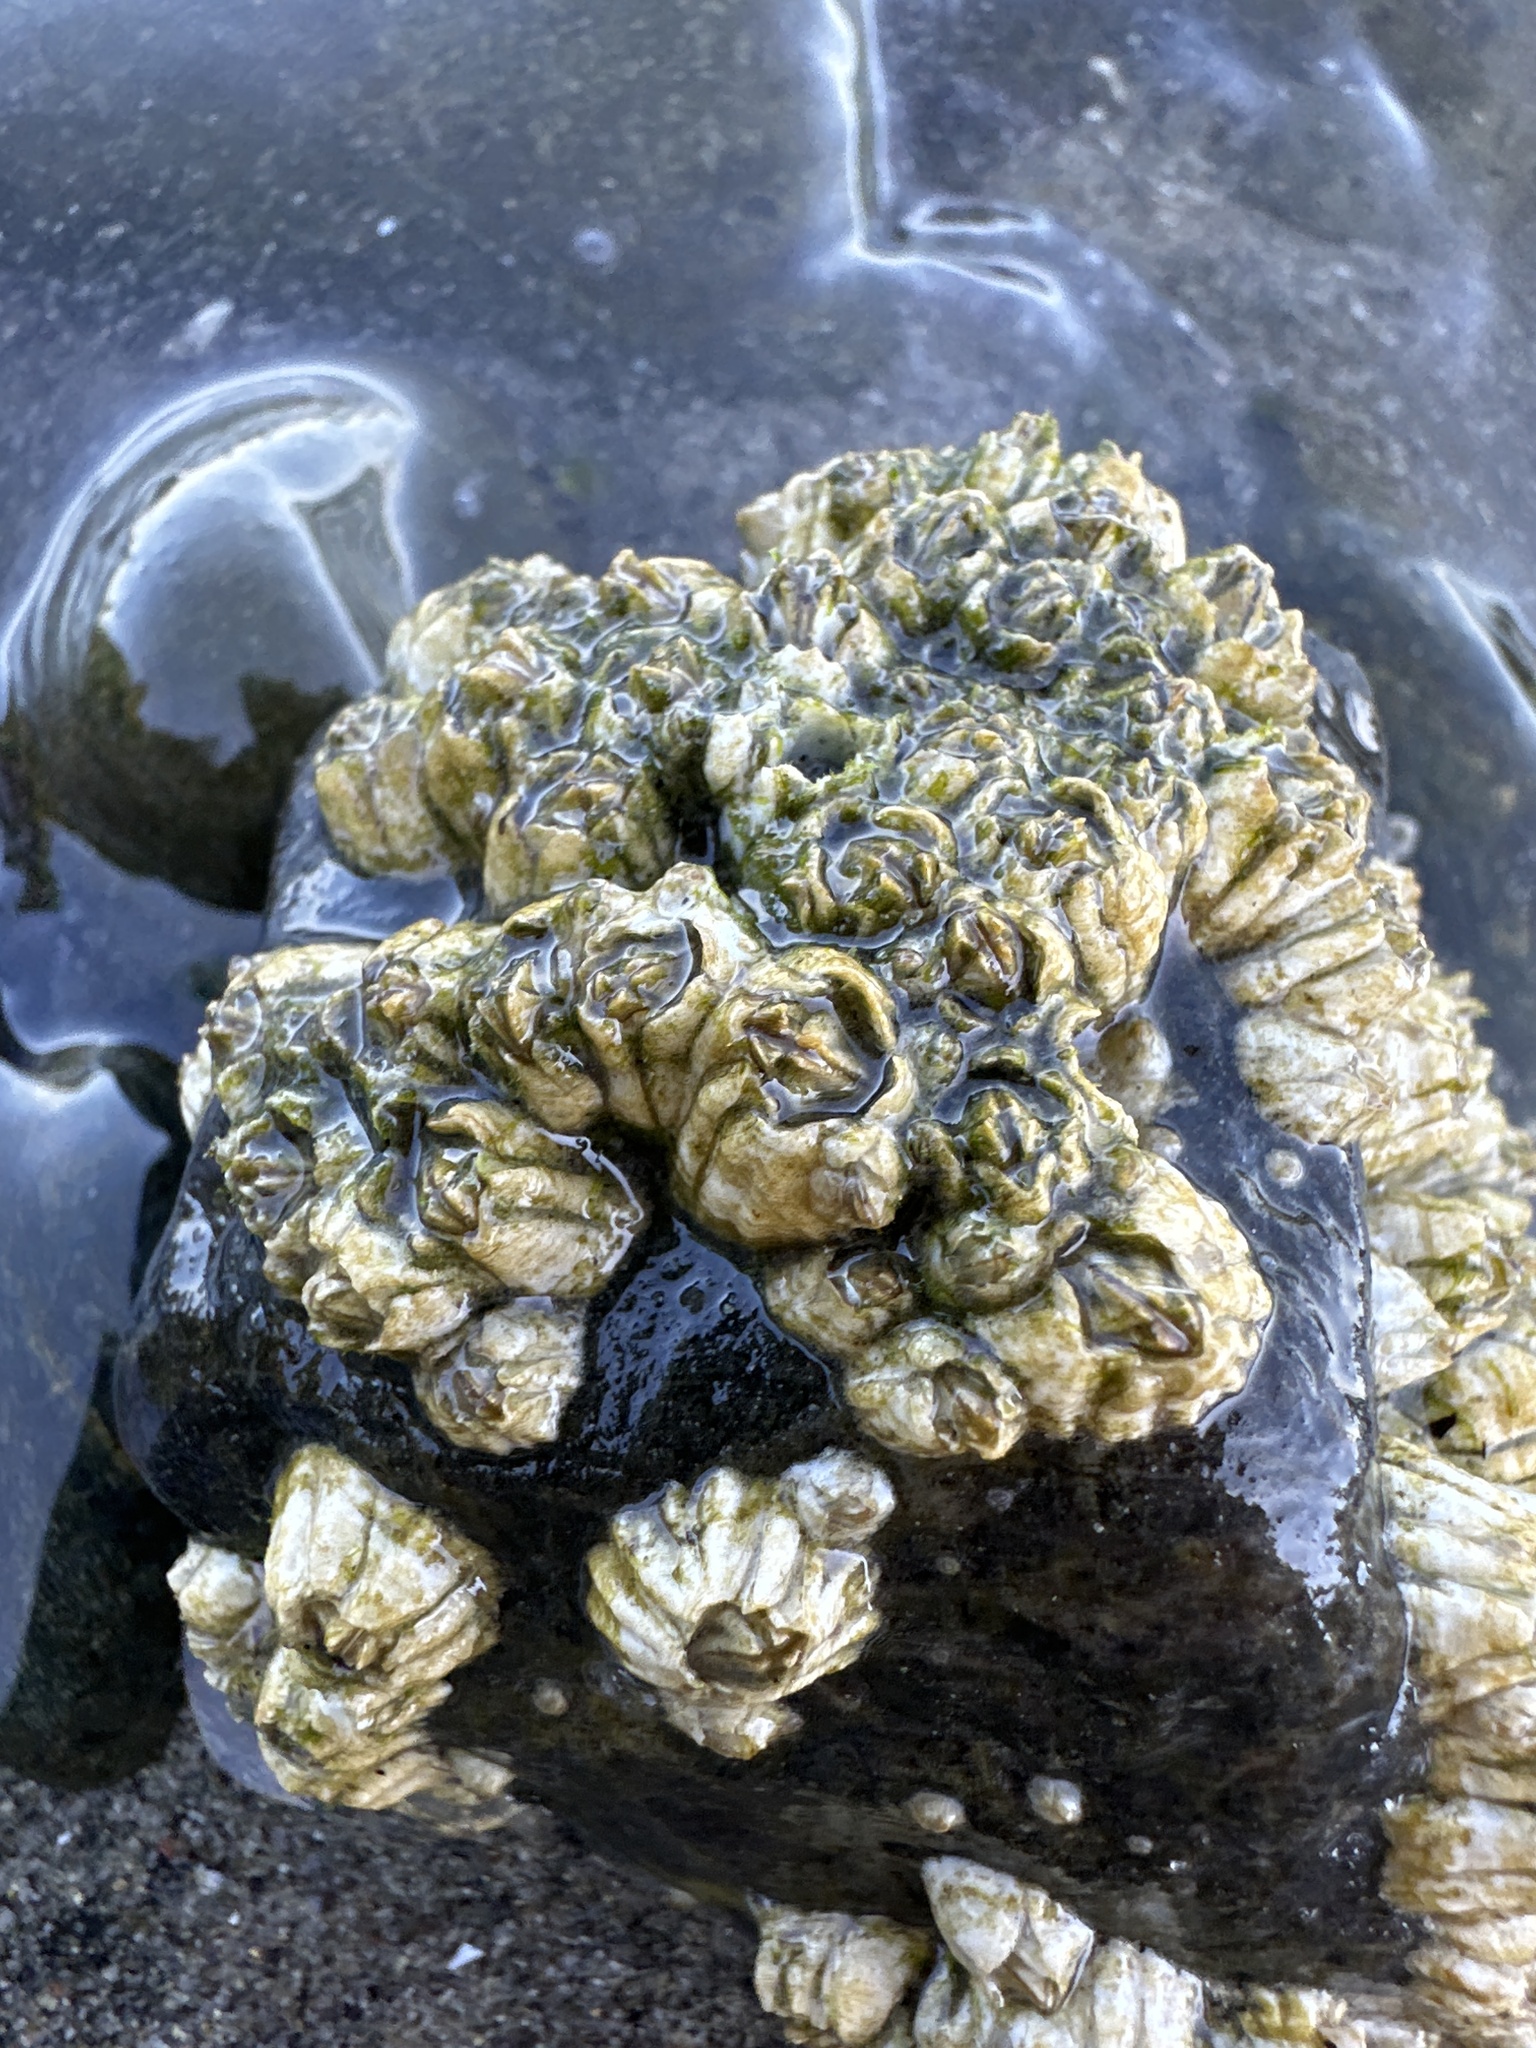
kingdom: Animalia
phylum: Arthropoda
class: Maxillopoda
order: Sessilia
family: Balanidae
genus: Balanus
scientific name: Balanus glandula
